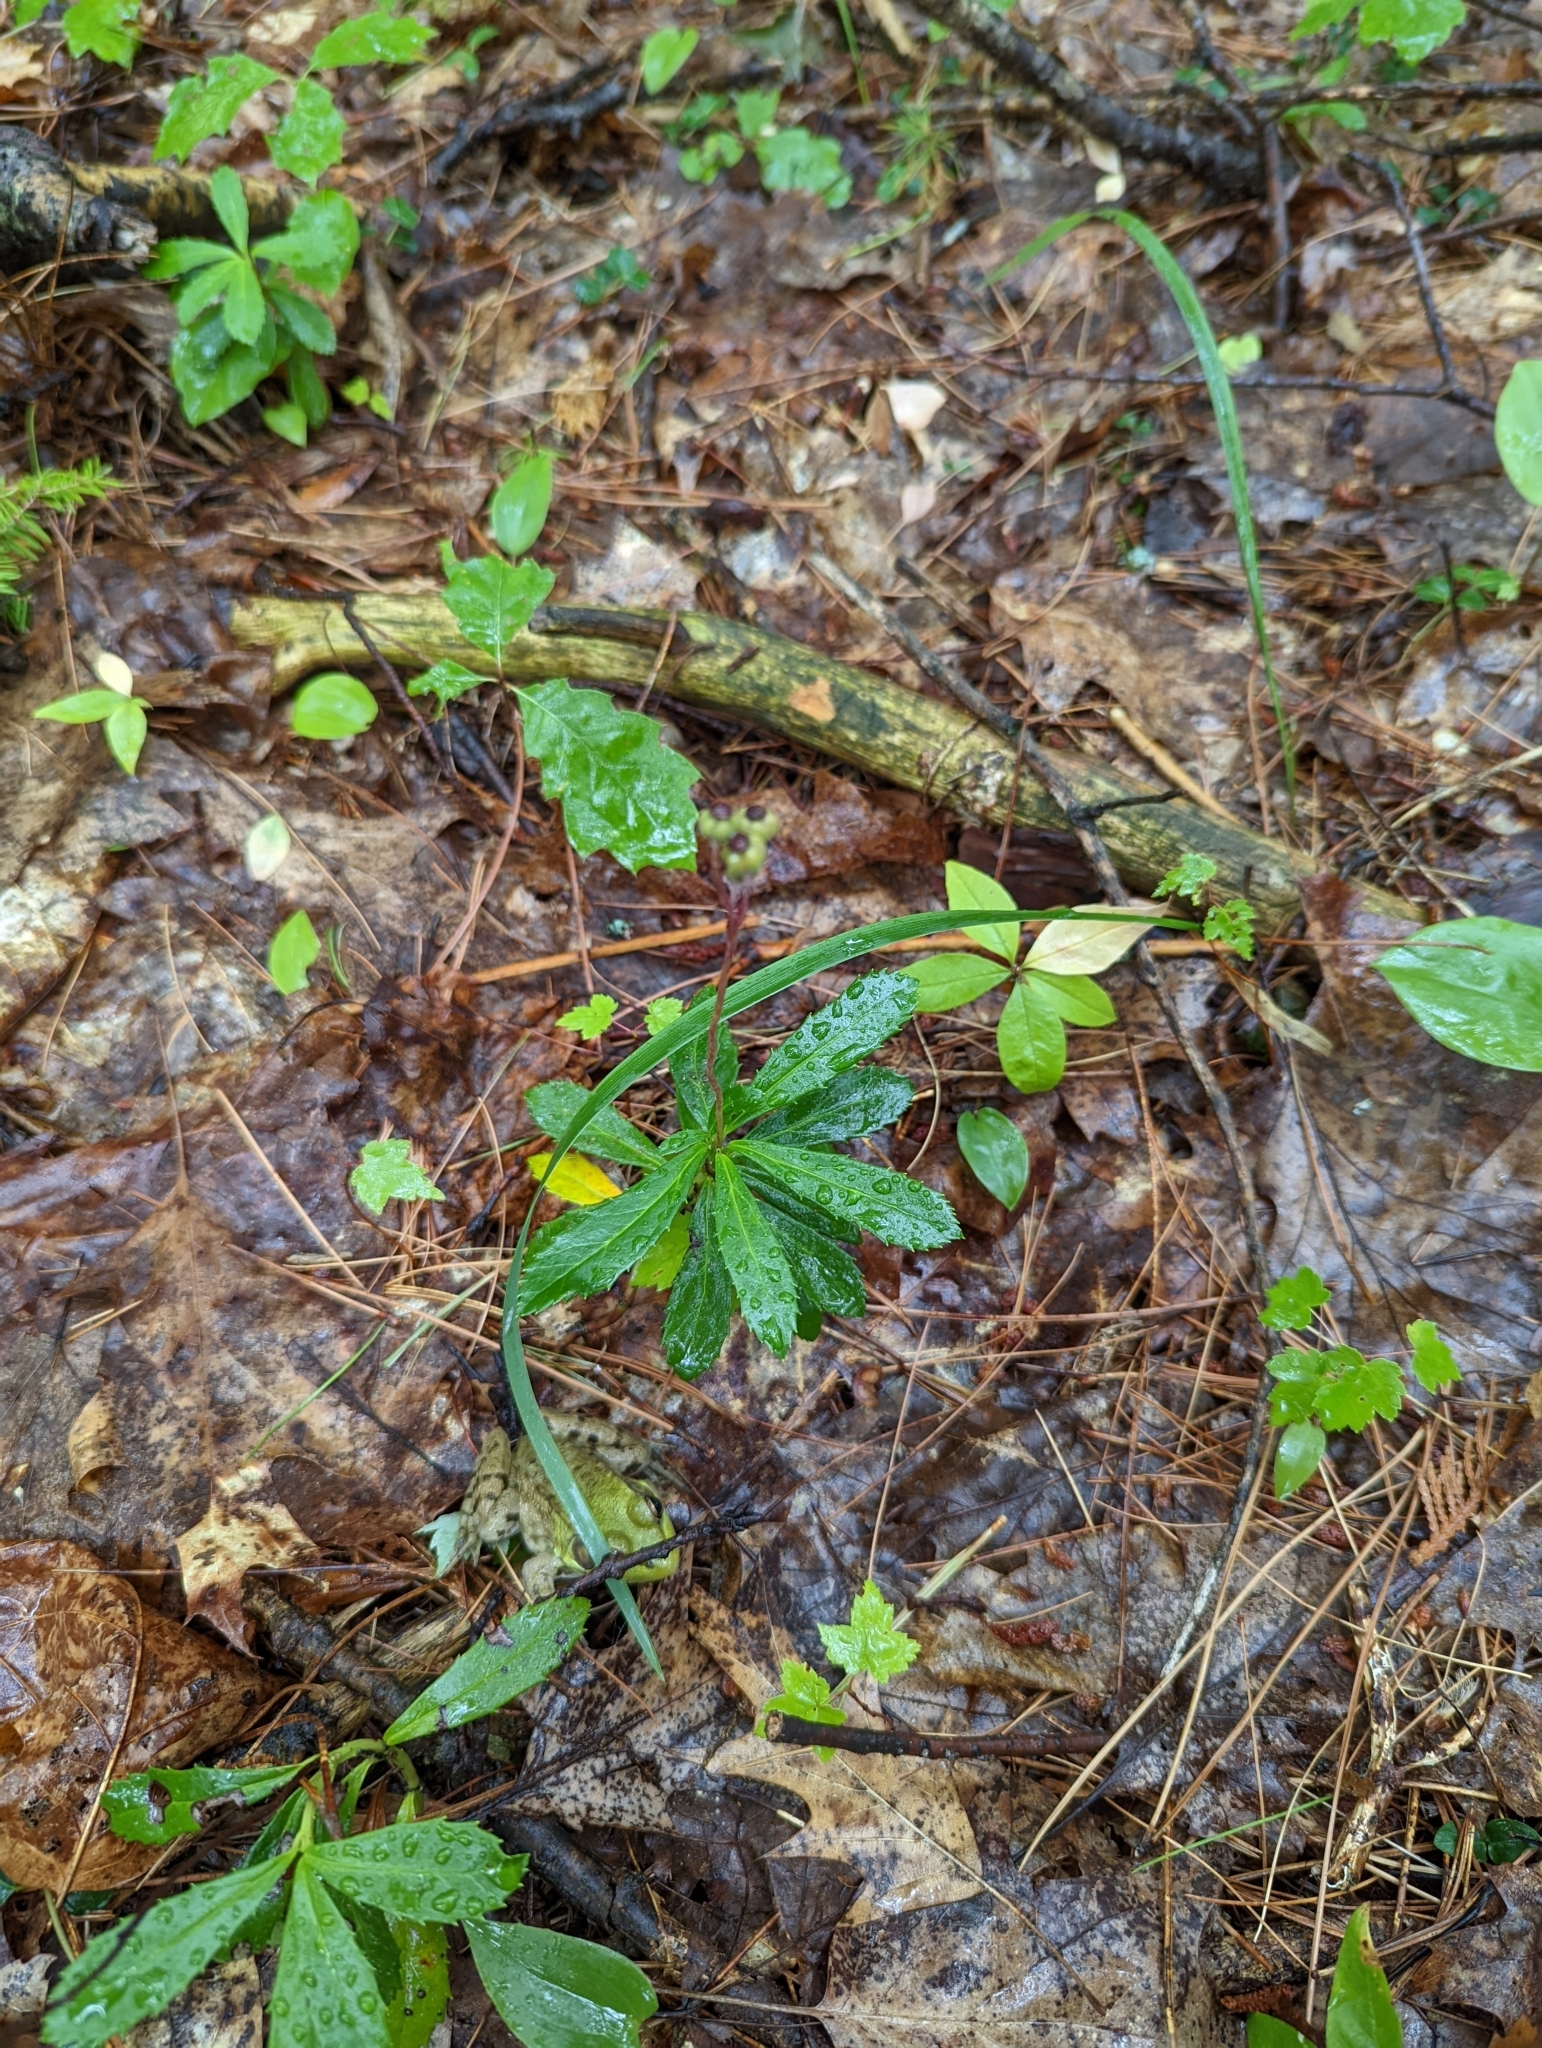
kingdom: Plantae
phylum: Tracheophyta
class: Magnoliopsida
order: Ericales
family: Ericaceae
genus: Chimaphila
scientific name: Chimaphila umbellata
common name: Pipsissewa
